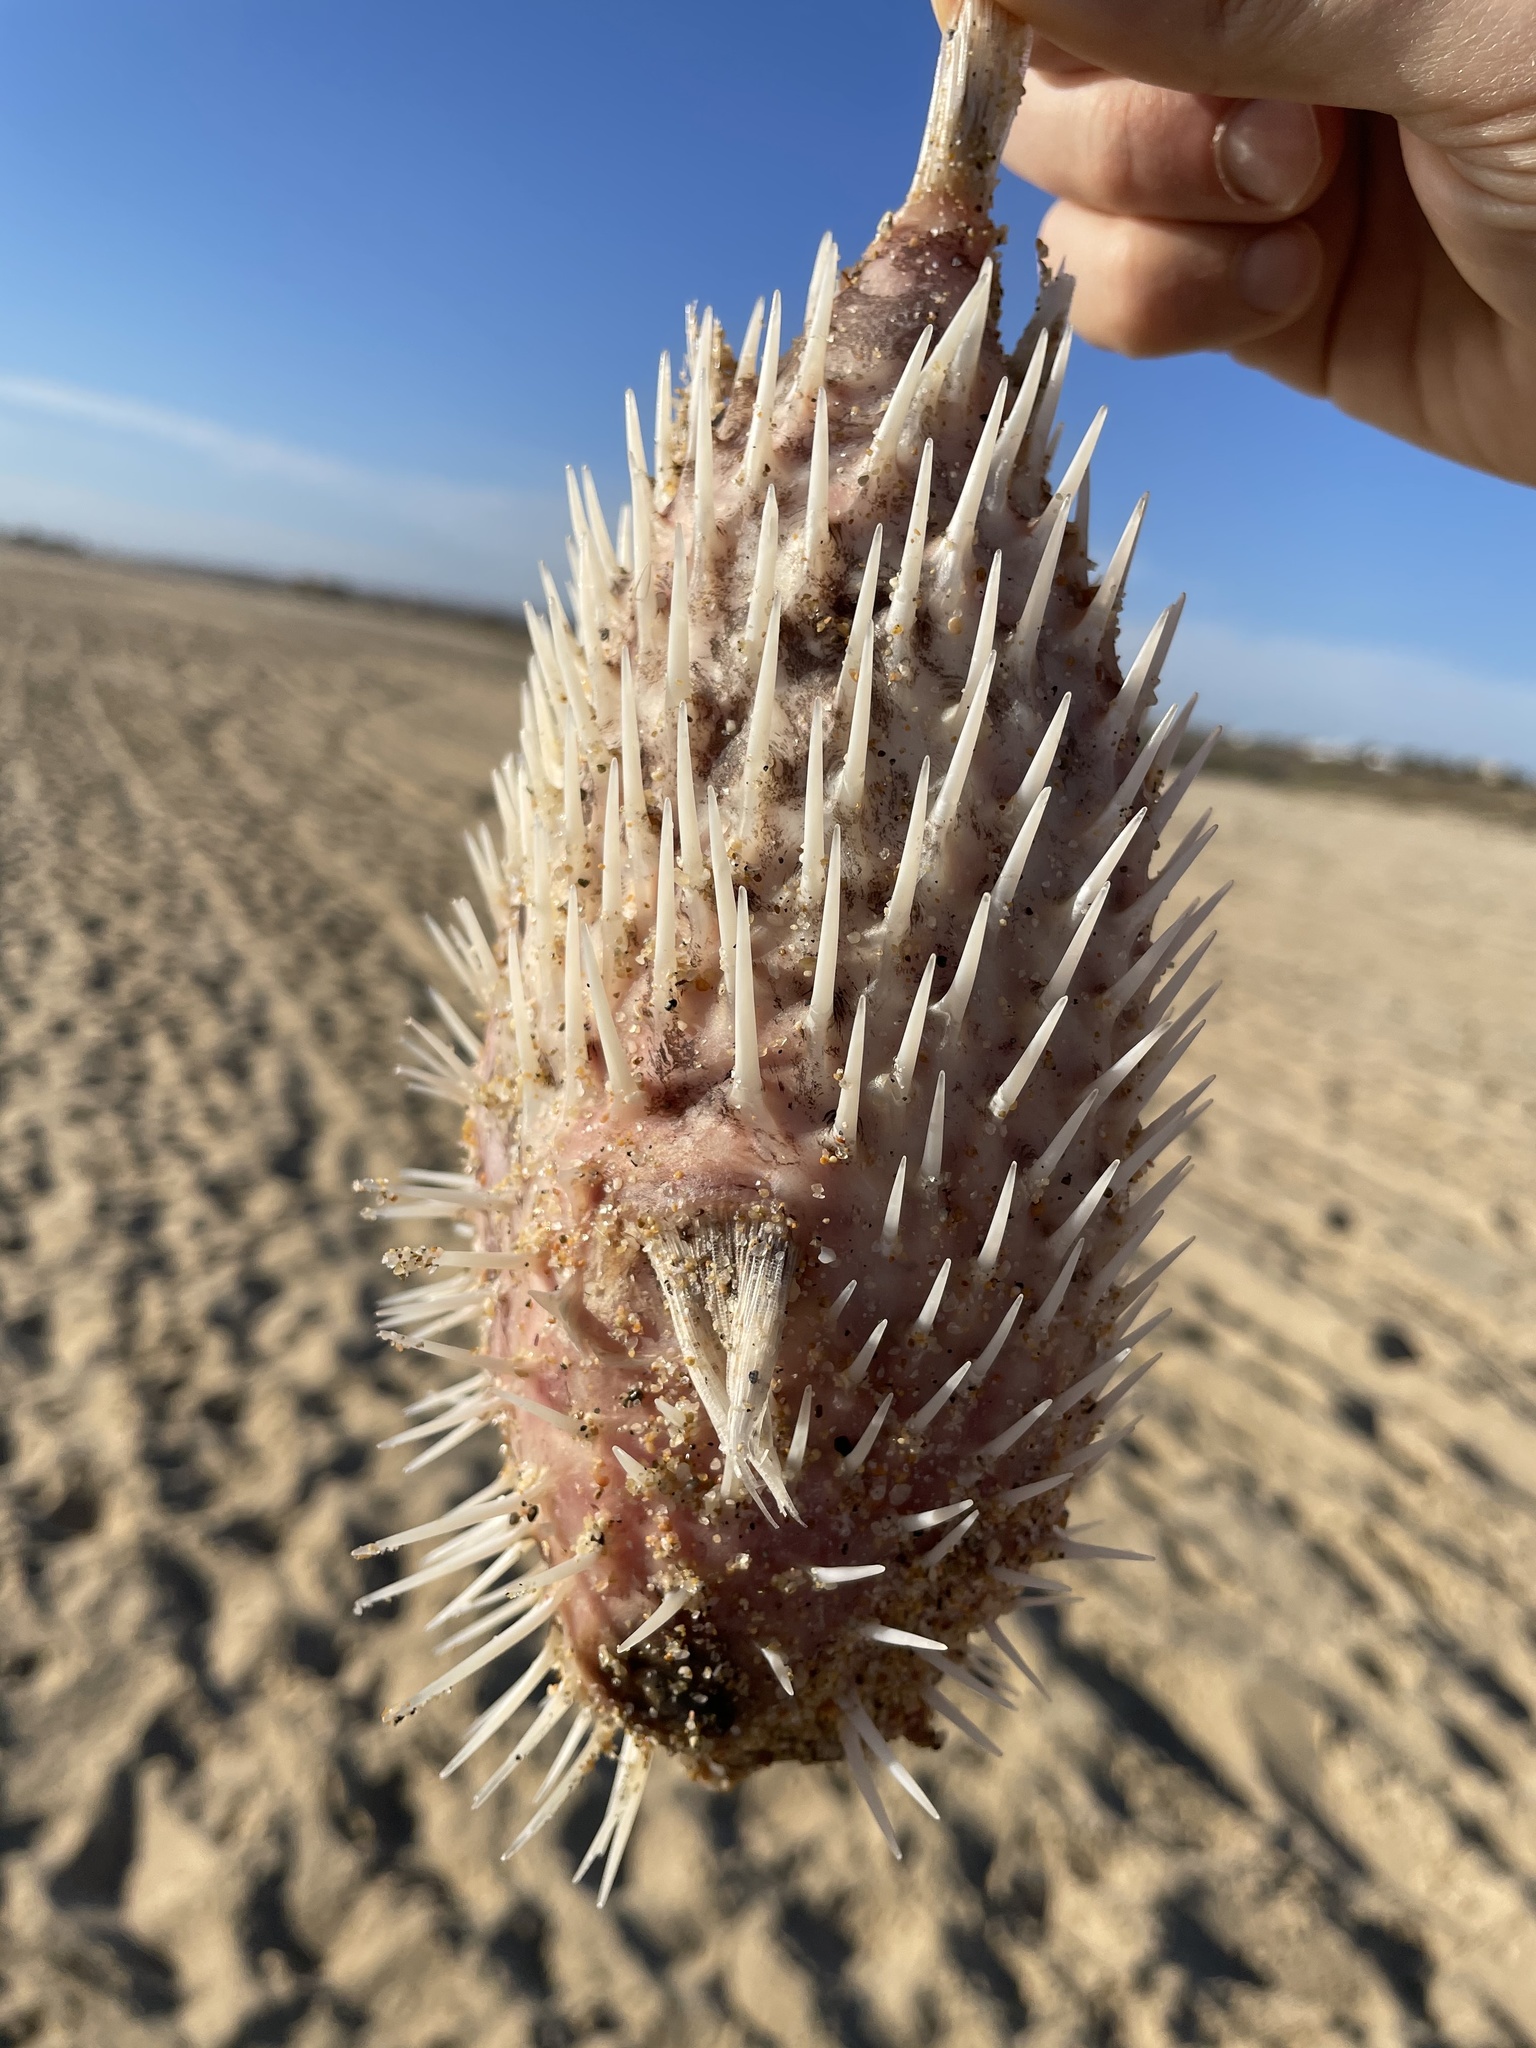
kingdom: Animalia
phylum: Chordata
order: Tetraodontiformes
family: Diodontidae
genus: Diodon
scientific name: Diodon holocanthus
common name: Balloonfish
